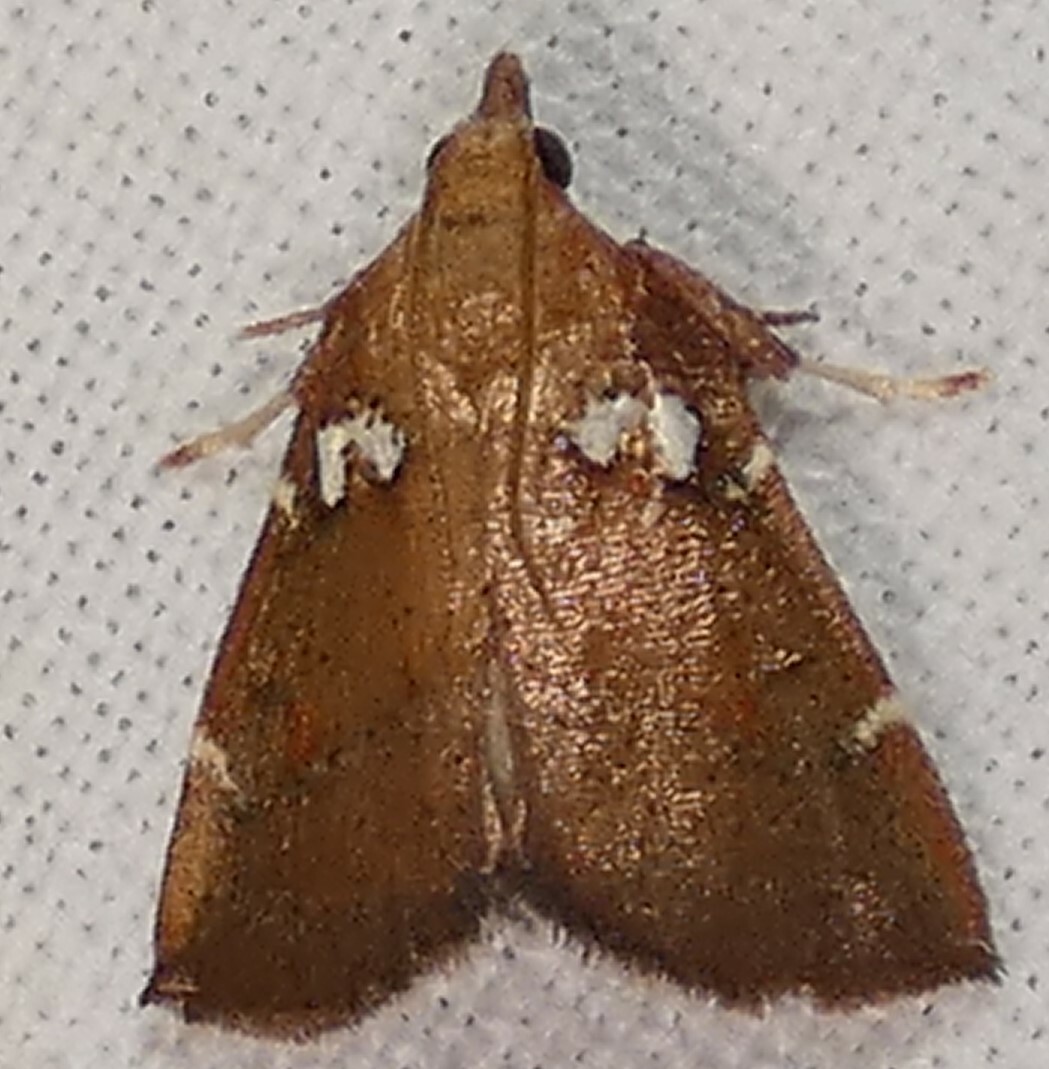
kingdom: Animalia
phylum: Arthropoda
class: Insecta
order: Lepidoptera
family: Pyralidae
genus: Lepidomys
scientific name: Lepidomys irrenosa
